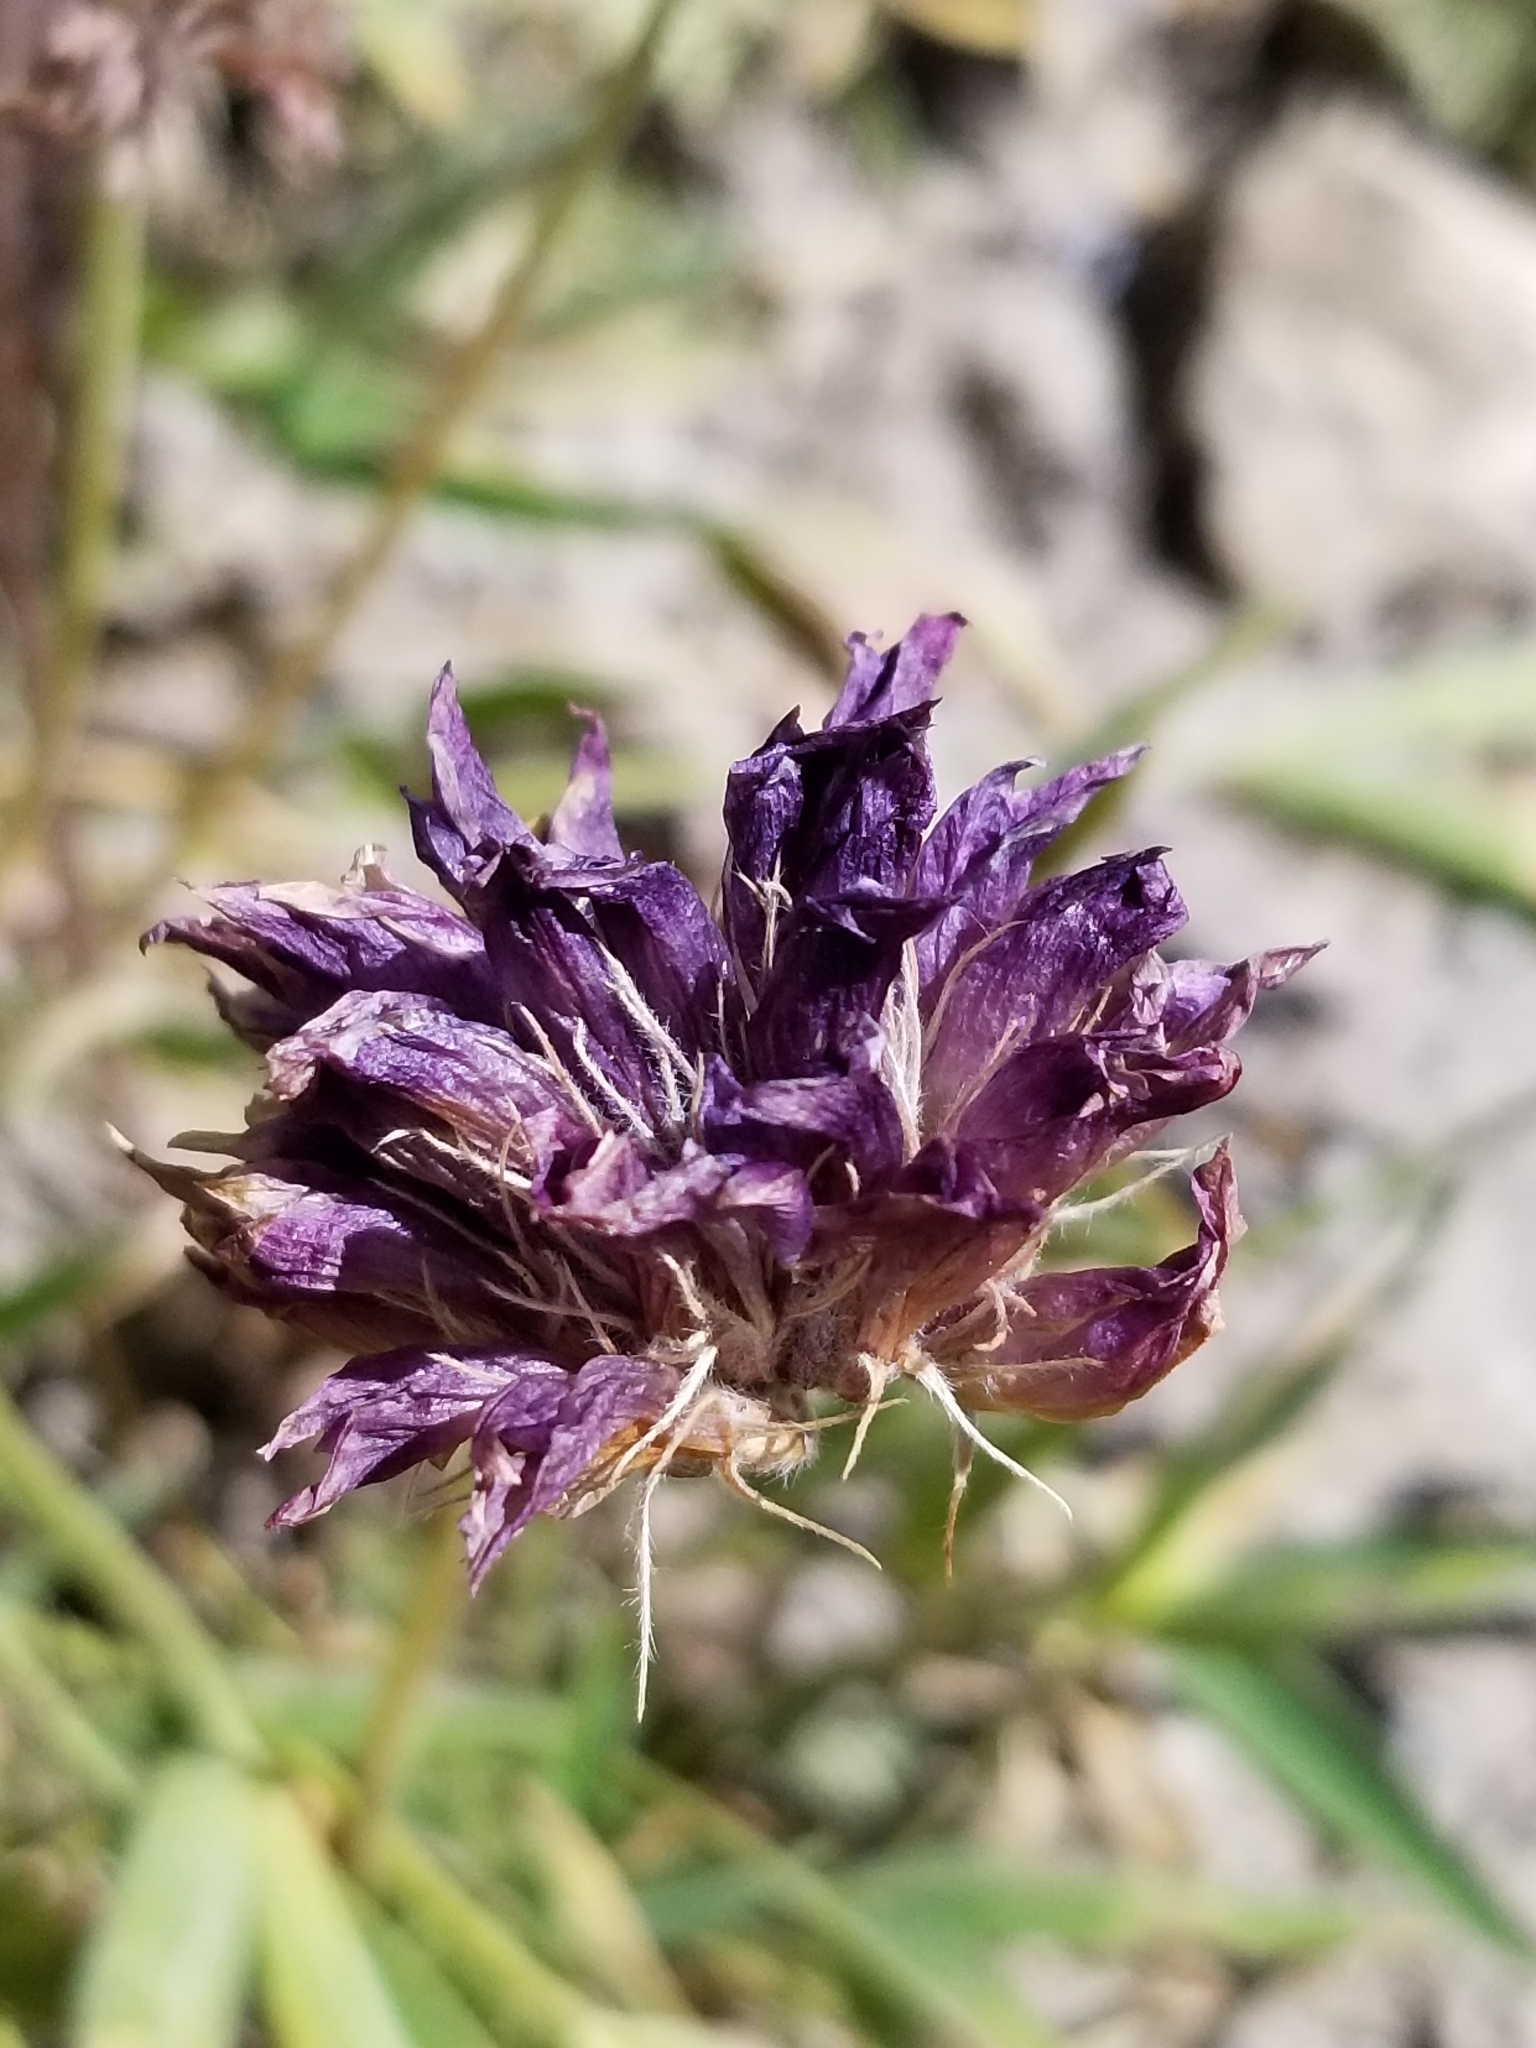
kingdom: Plantae
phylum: Tracheophyta
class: Magnoliopsida
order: Fabales
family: Fabaceae
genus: Trifolium
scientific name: Trifolium attenuatum
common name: Rocky mountain clover
